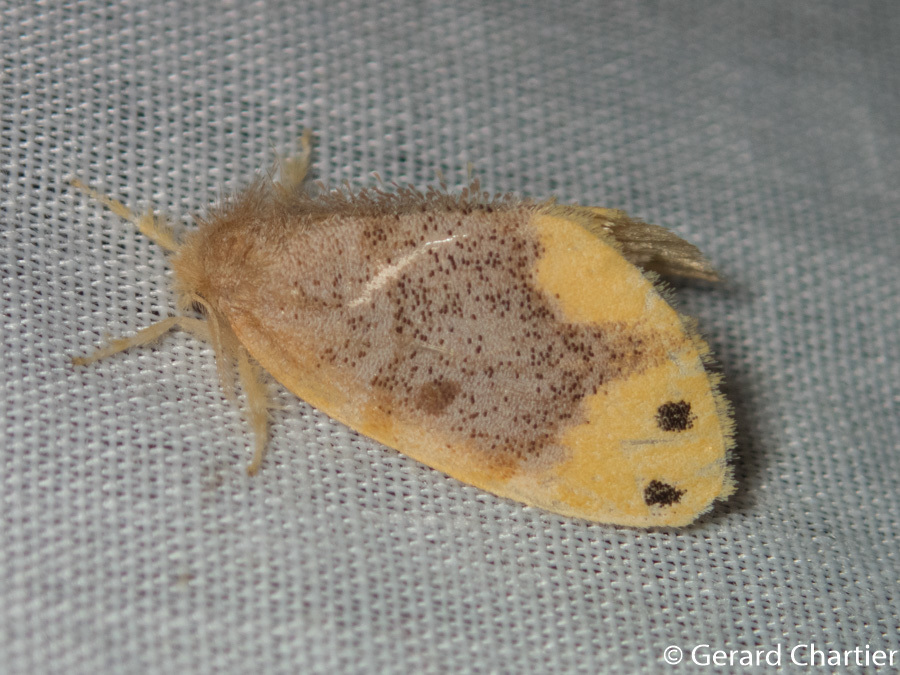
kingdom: Animalia
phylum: Arthropoda
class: Insecta
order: Lepidoptera
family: Erebidae
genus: Arna
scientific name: Arna bipunctapex
